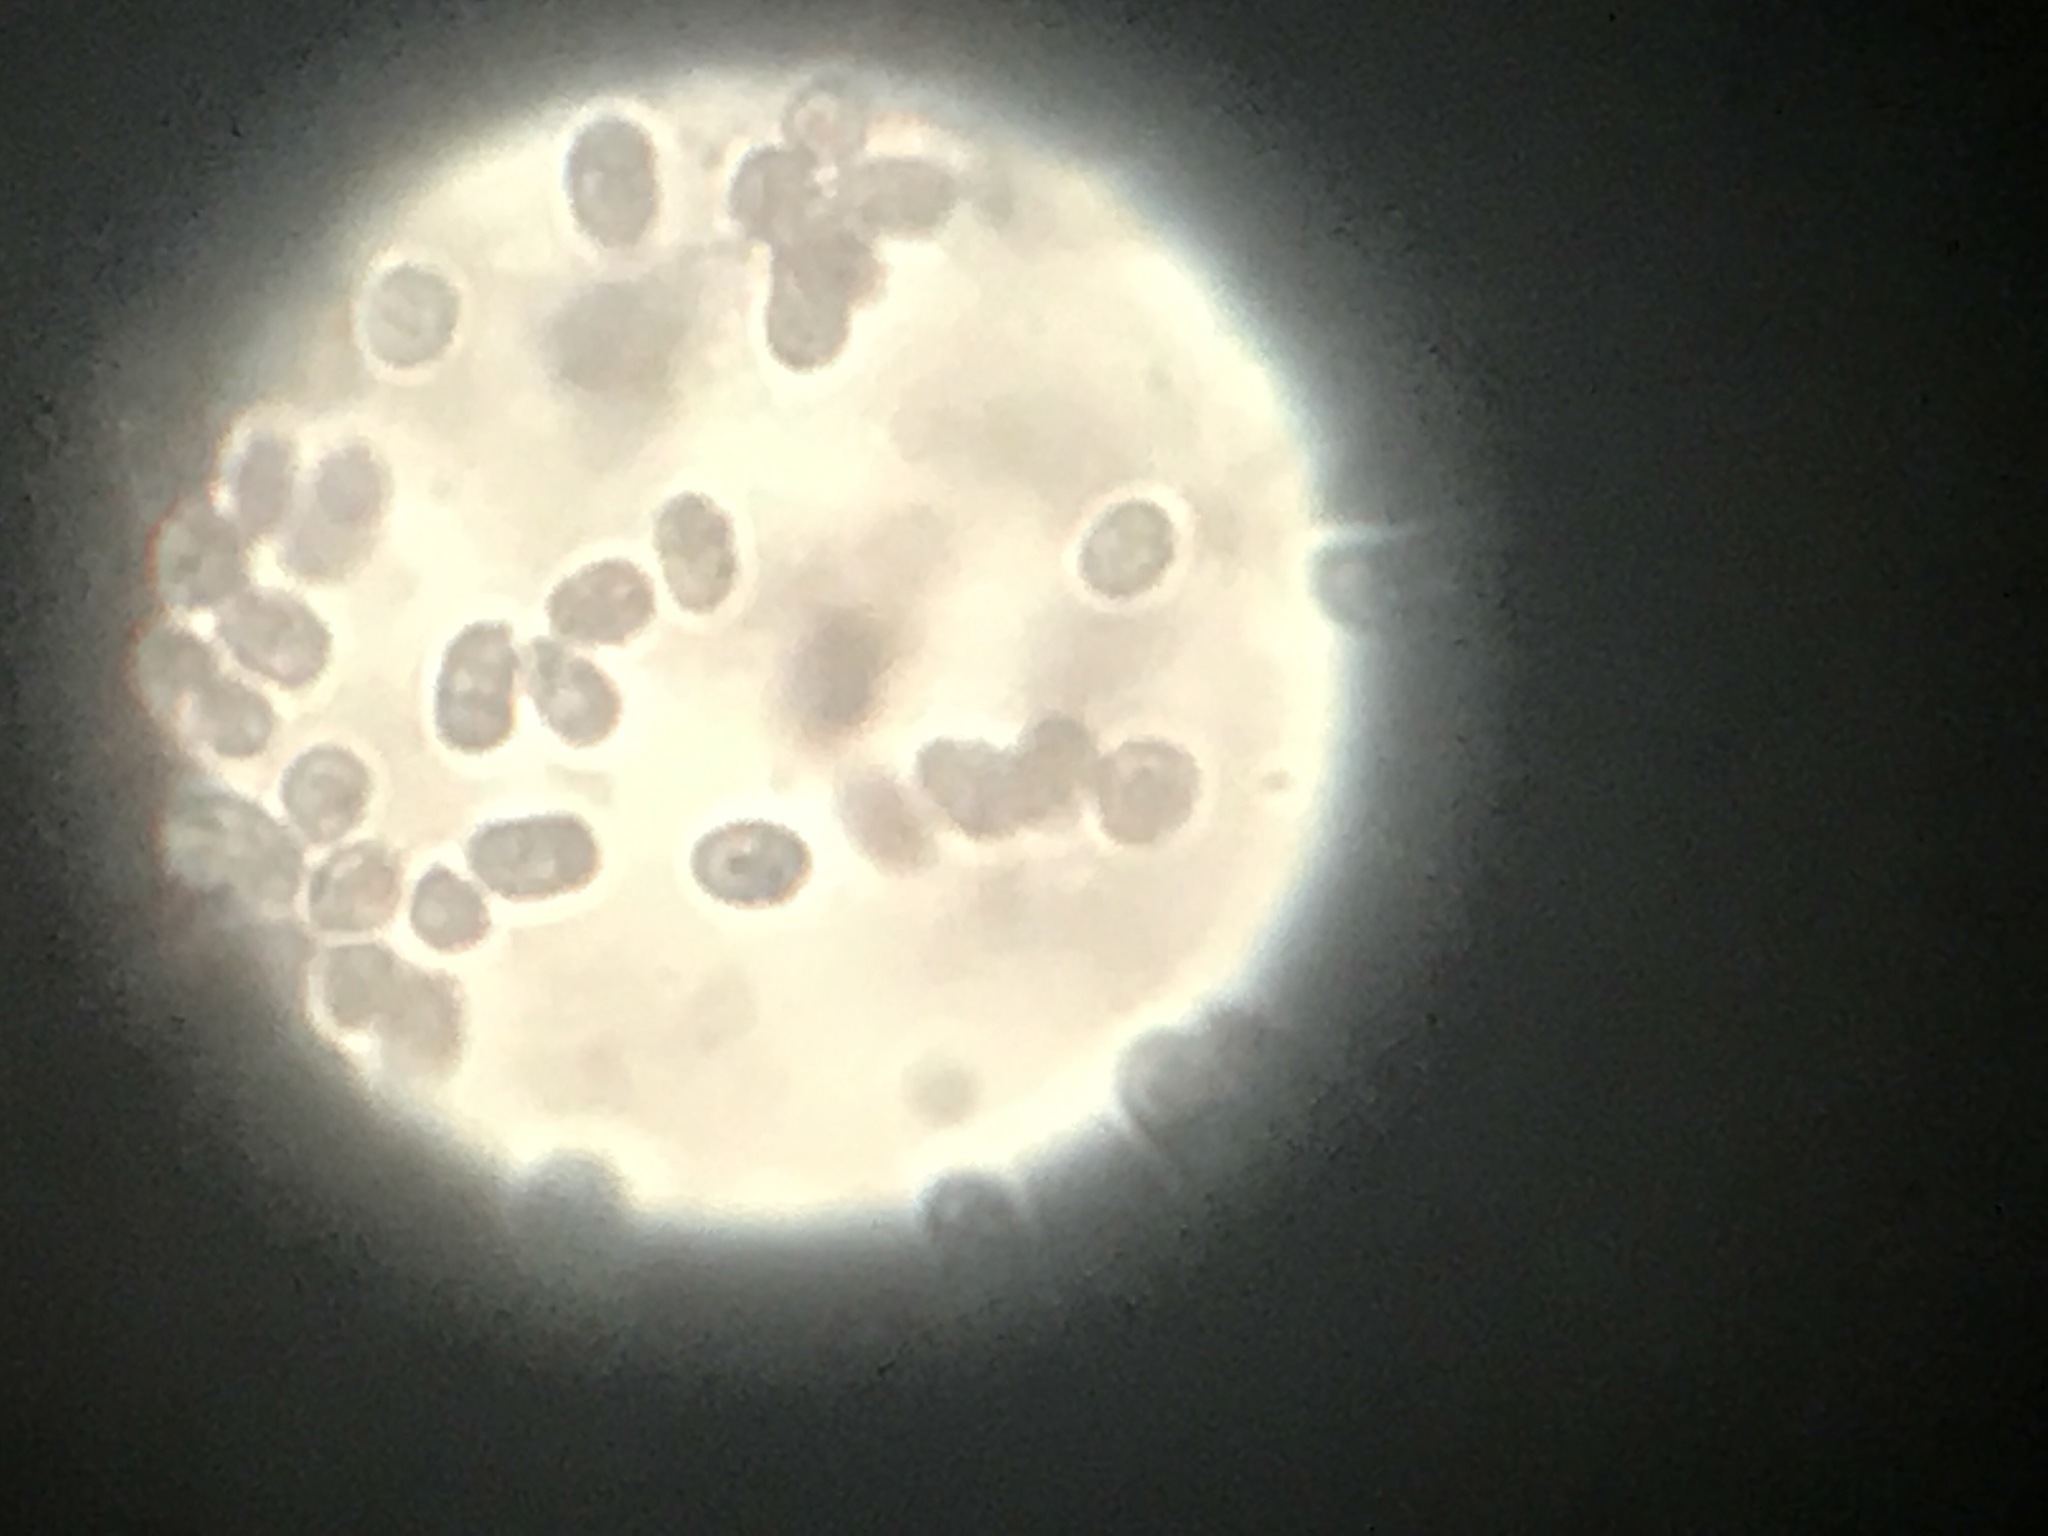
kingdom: Bacteria
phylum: Proteobacteria
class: Gammaproteobacteria
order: Chromatiales
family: Chromatiaceae
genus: Chromatium
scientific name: Chromatium
